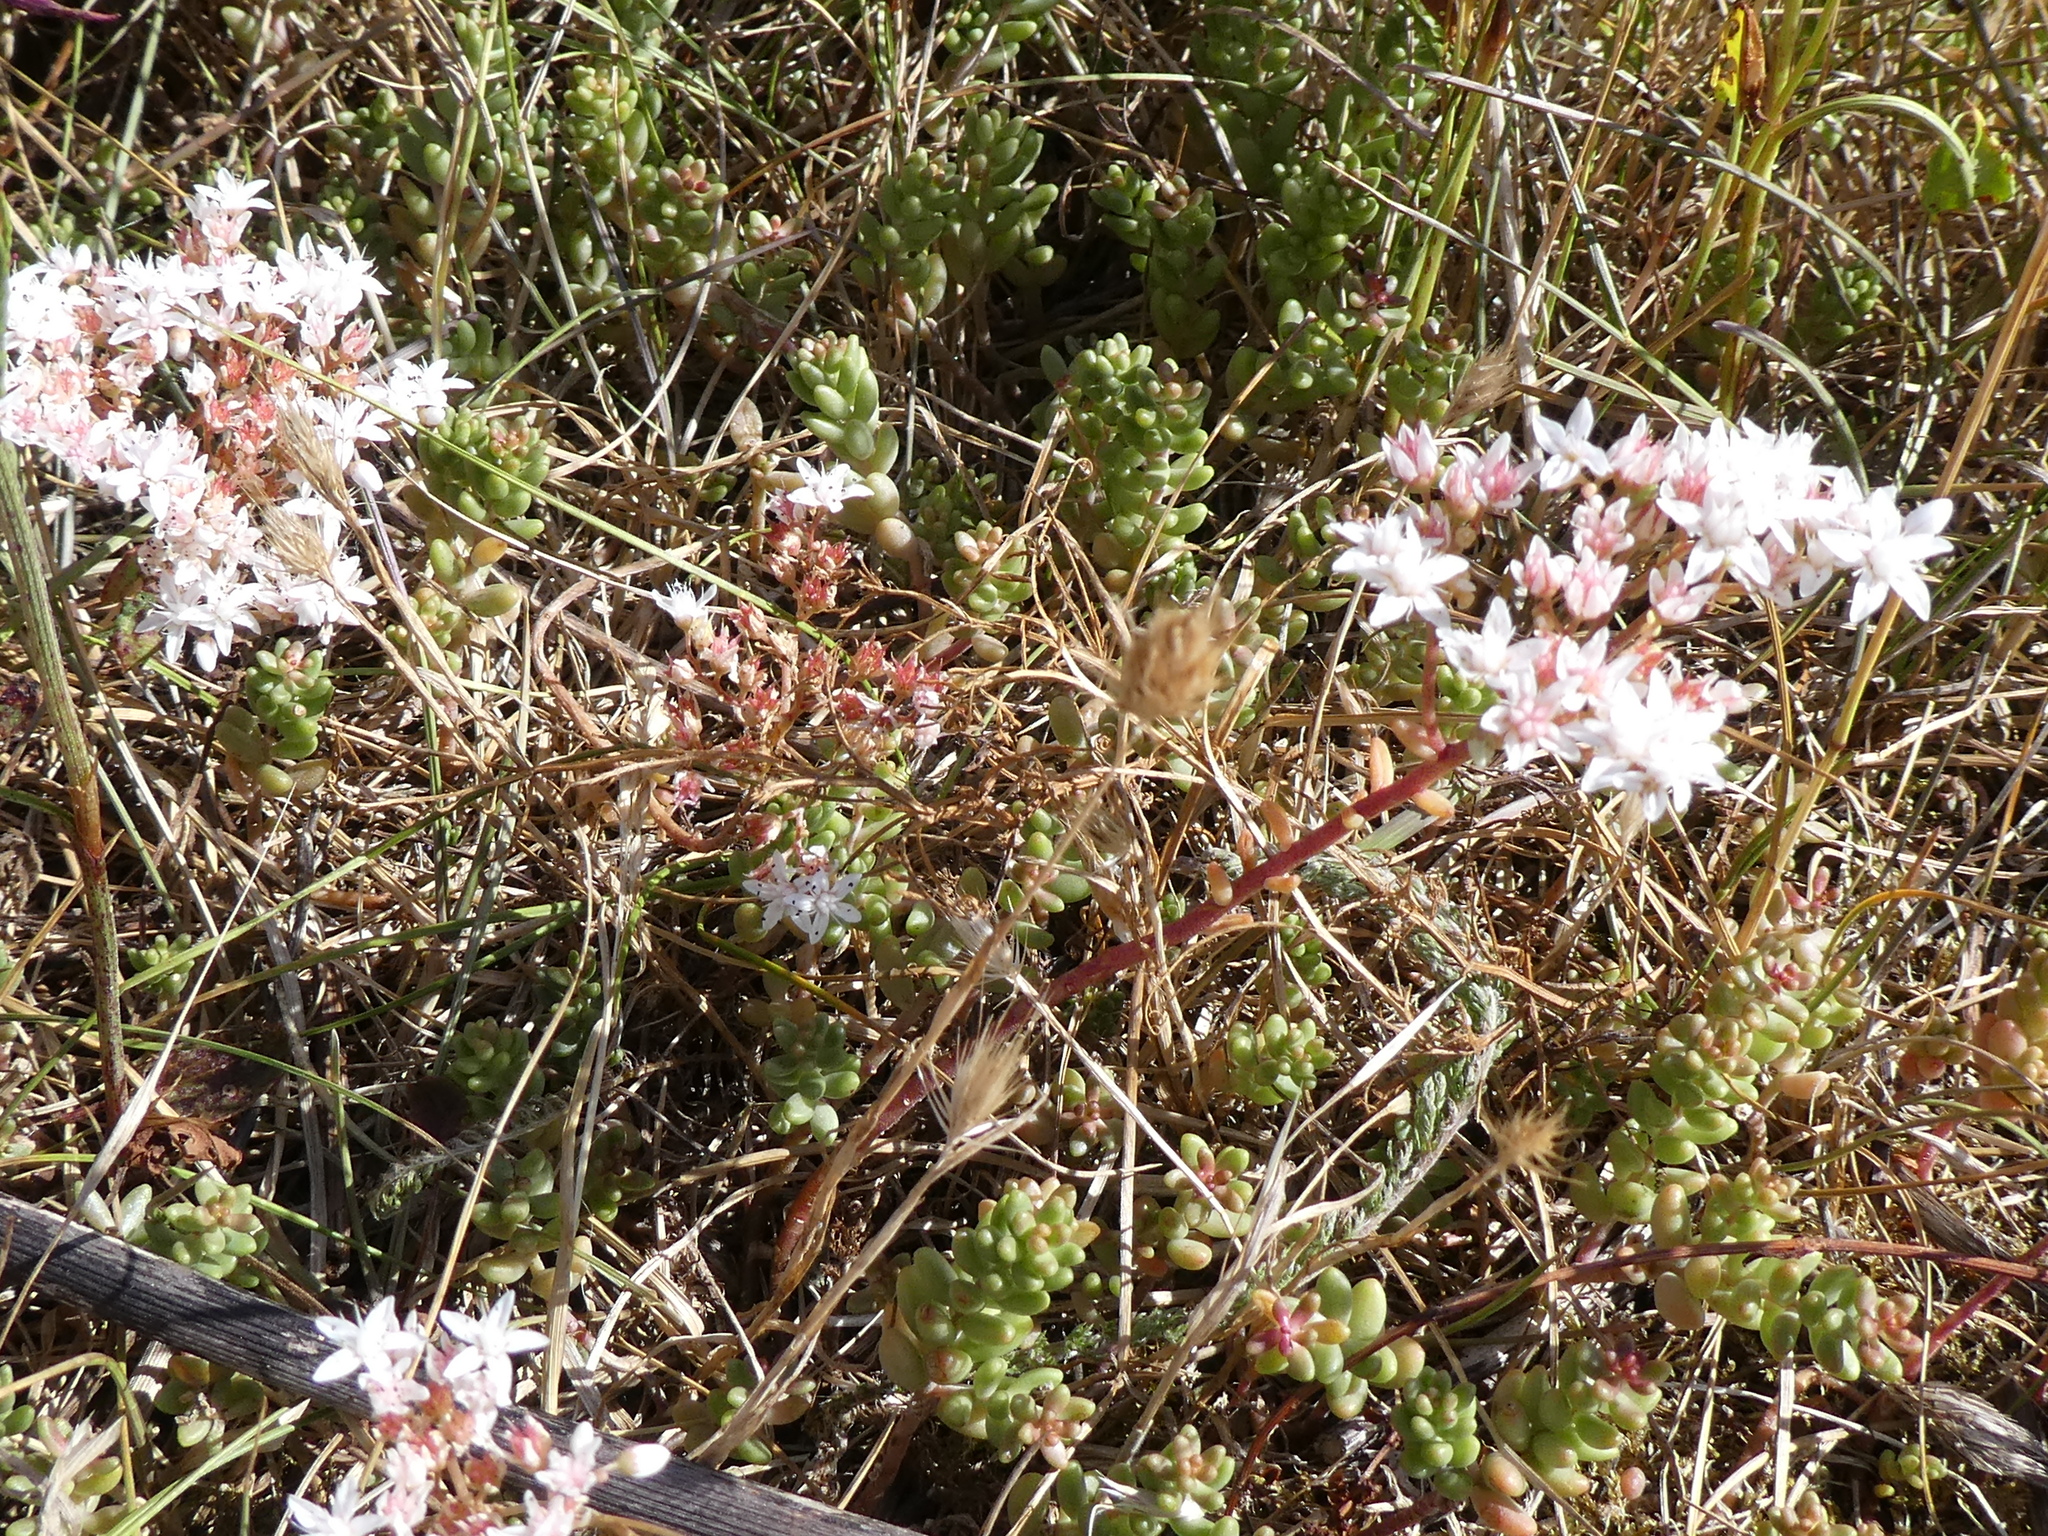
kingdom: Plantae
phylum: Tracheophyta
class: Magnoliopsida
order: Saxifragales
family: Crassulaceae
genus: Sedum
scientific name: Sedum album
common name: White stonecrop
